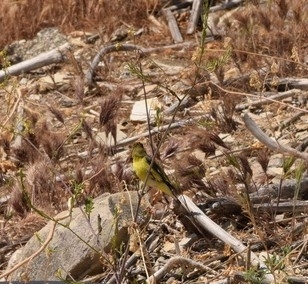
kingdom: Animalia
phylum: Chordata
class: Aves
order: Passeriformes
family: Fringillidae
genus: Spinus
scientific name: Spinus psaltria
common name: Lesser goldfinch
